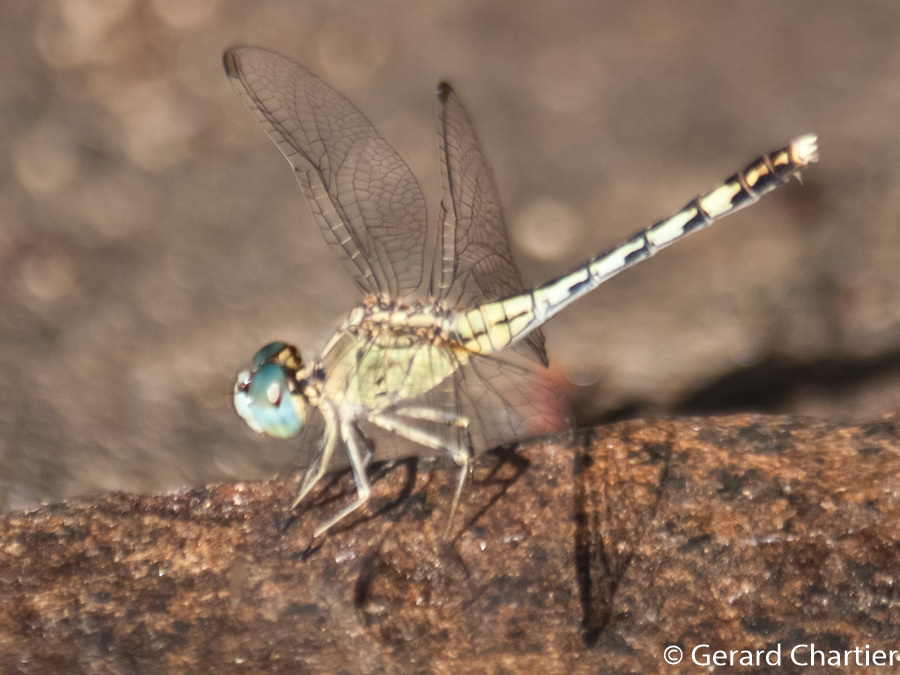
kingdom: Animalia
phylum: Arthropoda
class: Insecta
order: Odonata
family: Libellulidae
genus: Diplacodes
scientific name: Diplacodes trivialis
